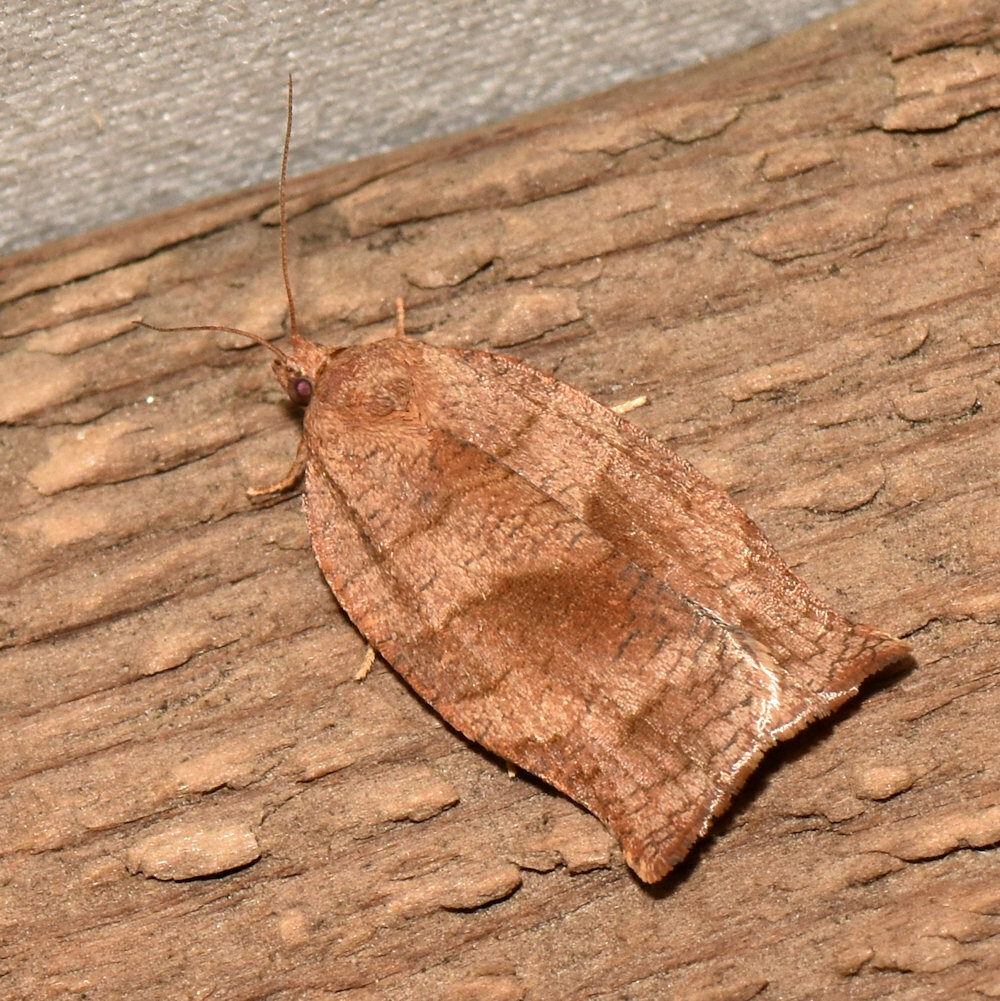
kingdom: Animalia
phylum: Arthropoda
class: Insecta
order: Lepidoptera
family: Tortricidae
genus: Choristoneura
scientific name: Choristoneura rosaceana
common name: Oblique-banded leafroller moth
